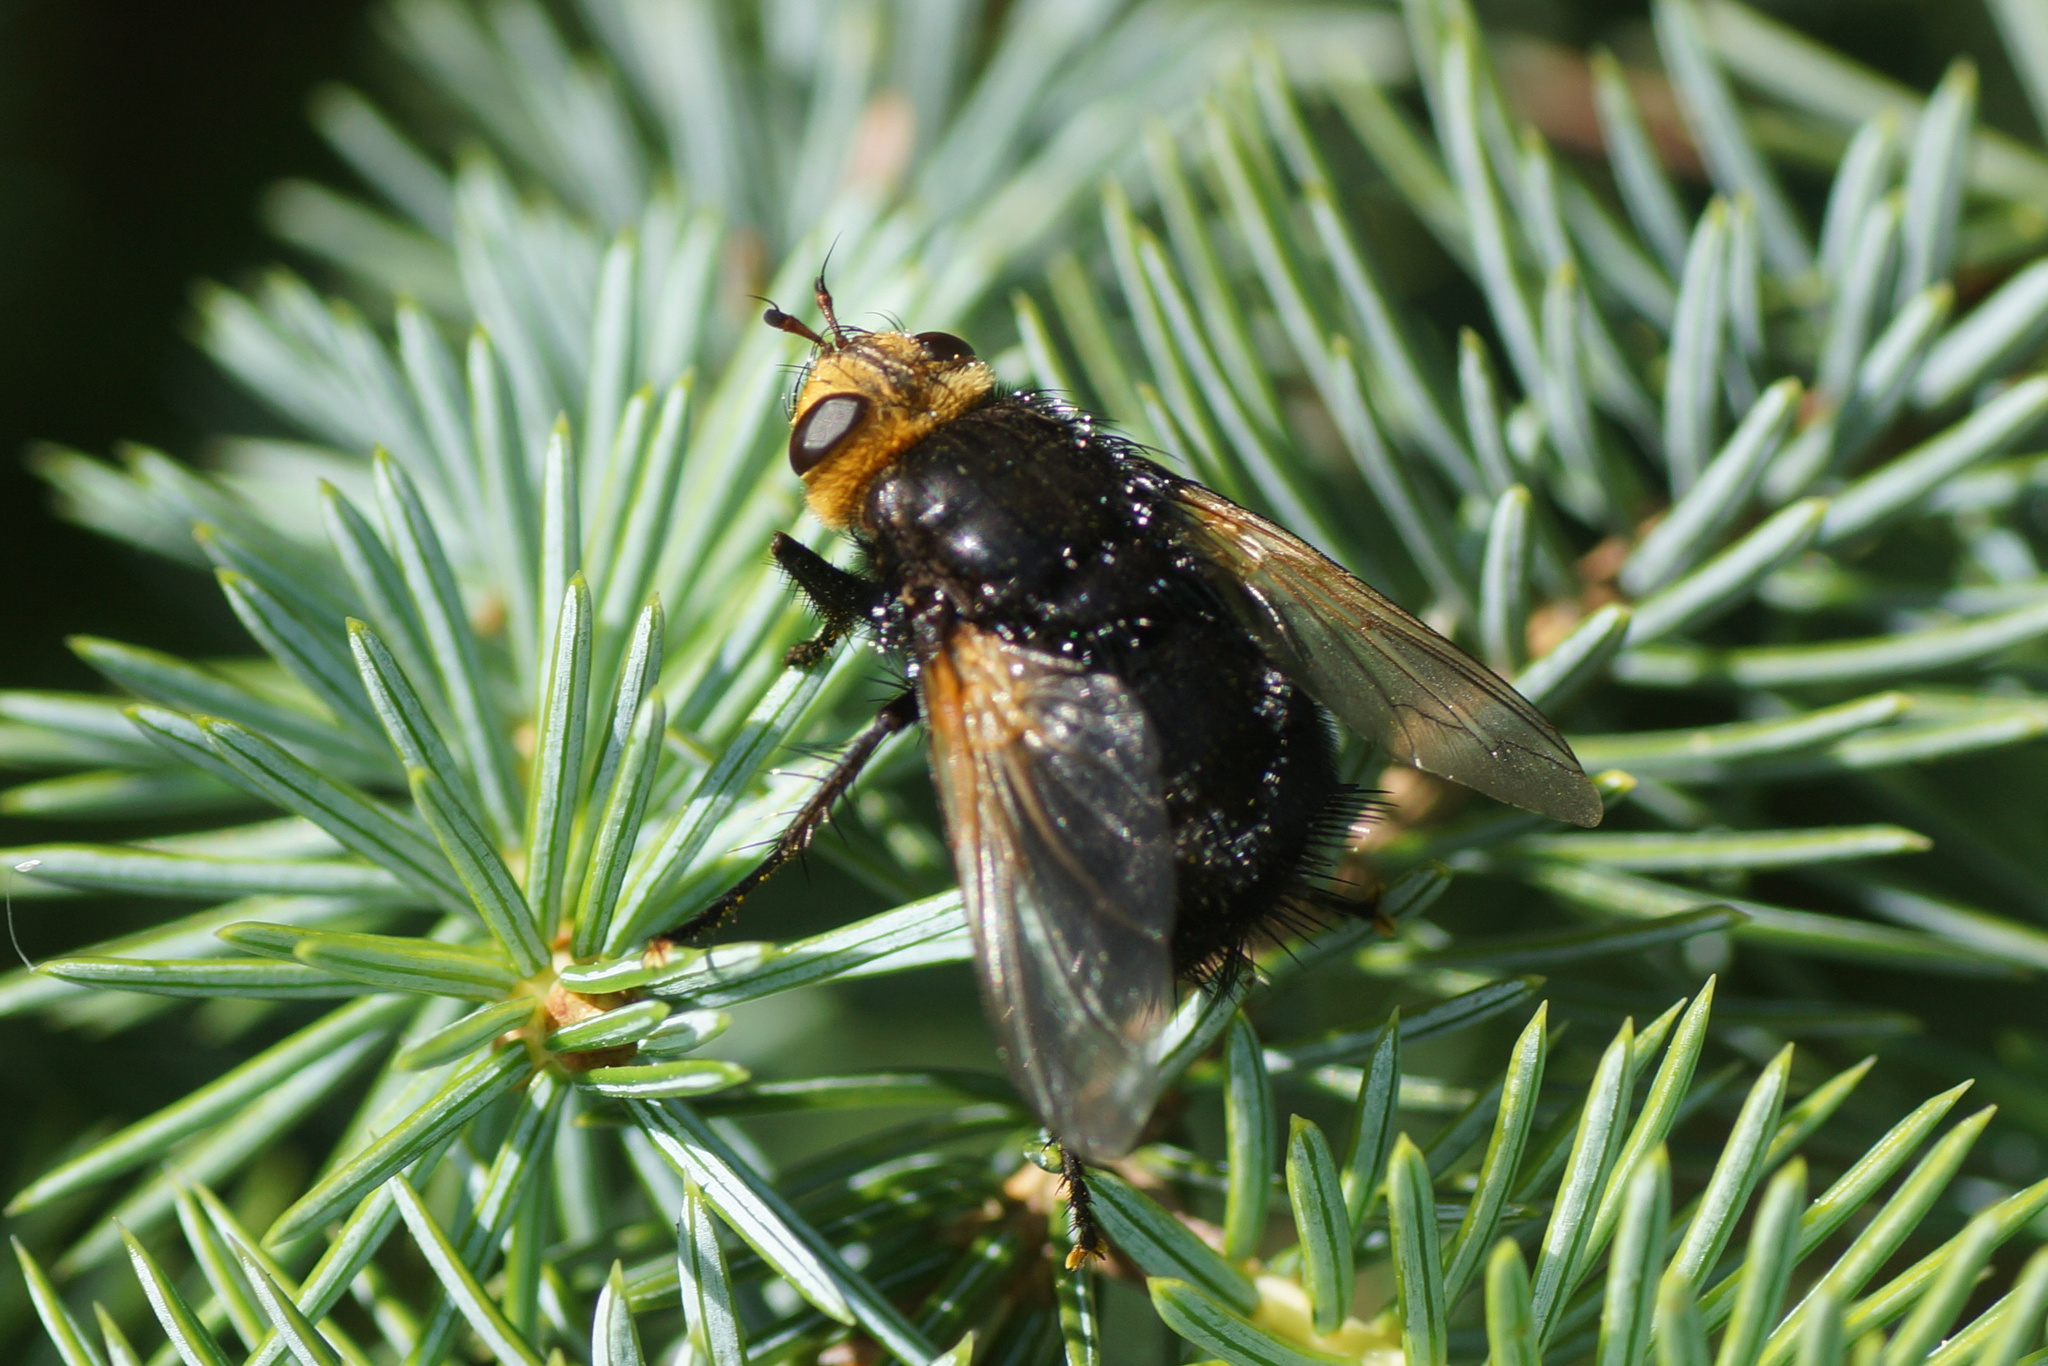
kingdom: Animalia
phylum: Arthropoda
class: Insecta
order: Diptera
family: Tachinidae
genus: Tachina
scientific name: Tachina grossa
